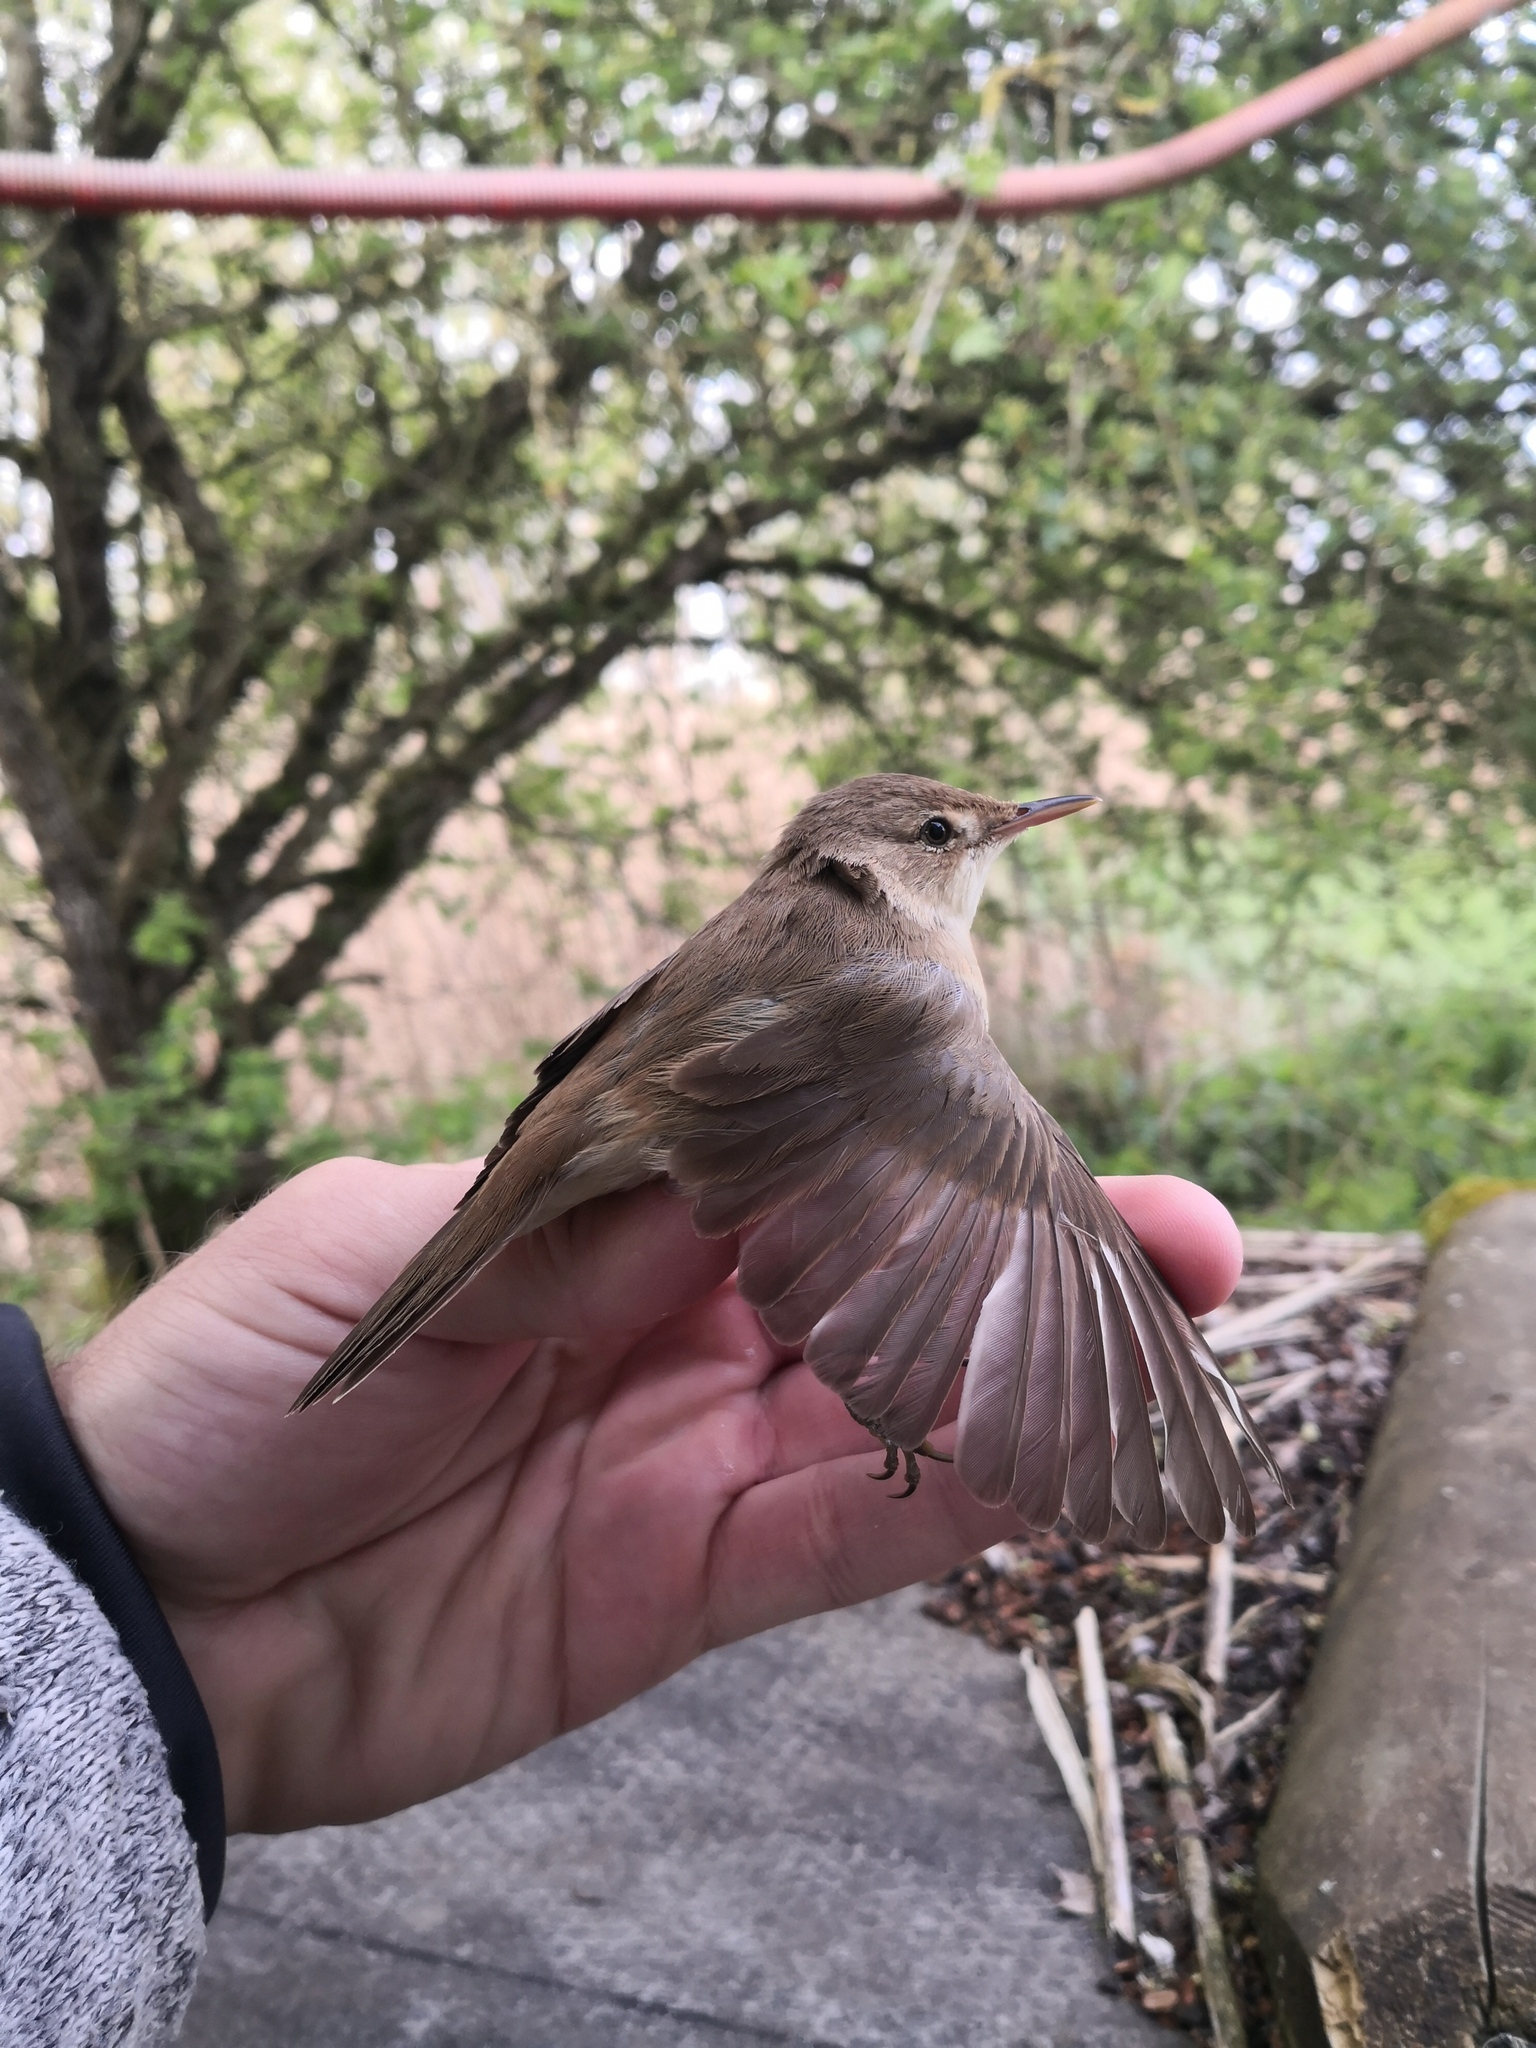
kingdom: Animalia
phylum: Chordata
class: Aves
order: Passeriformes
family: Acrocephalidae
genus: Acrocephalus
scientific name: Acrocephalus scirpaceus
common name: Eurasian reed warbler
